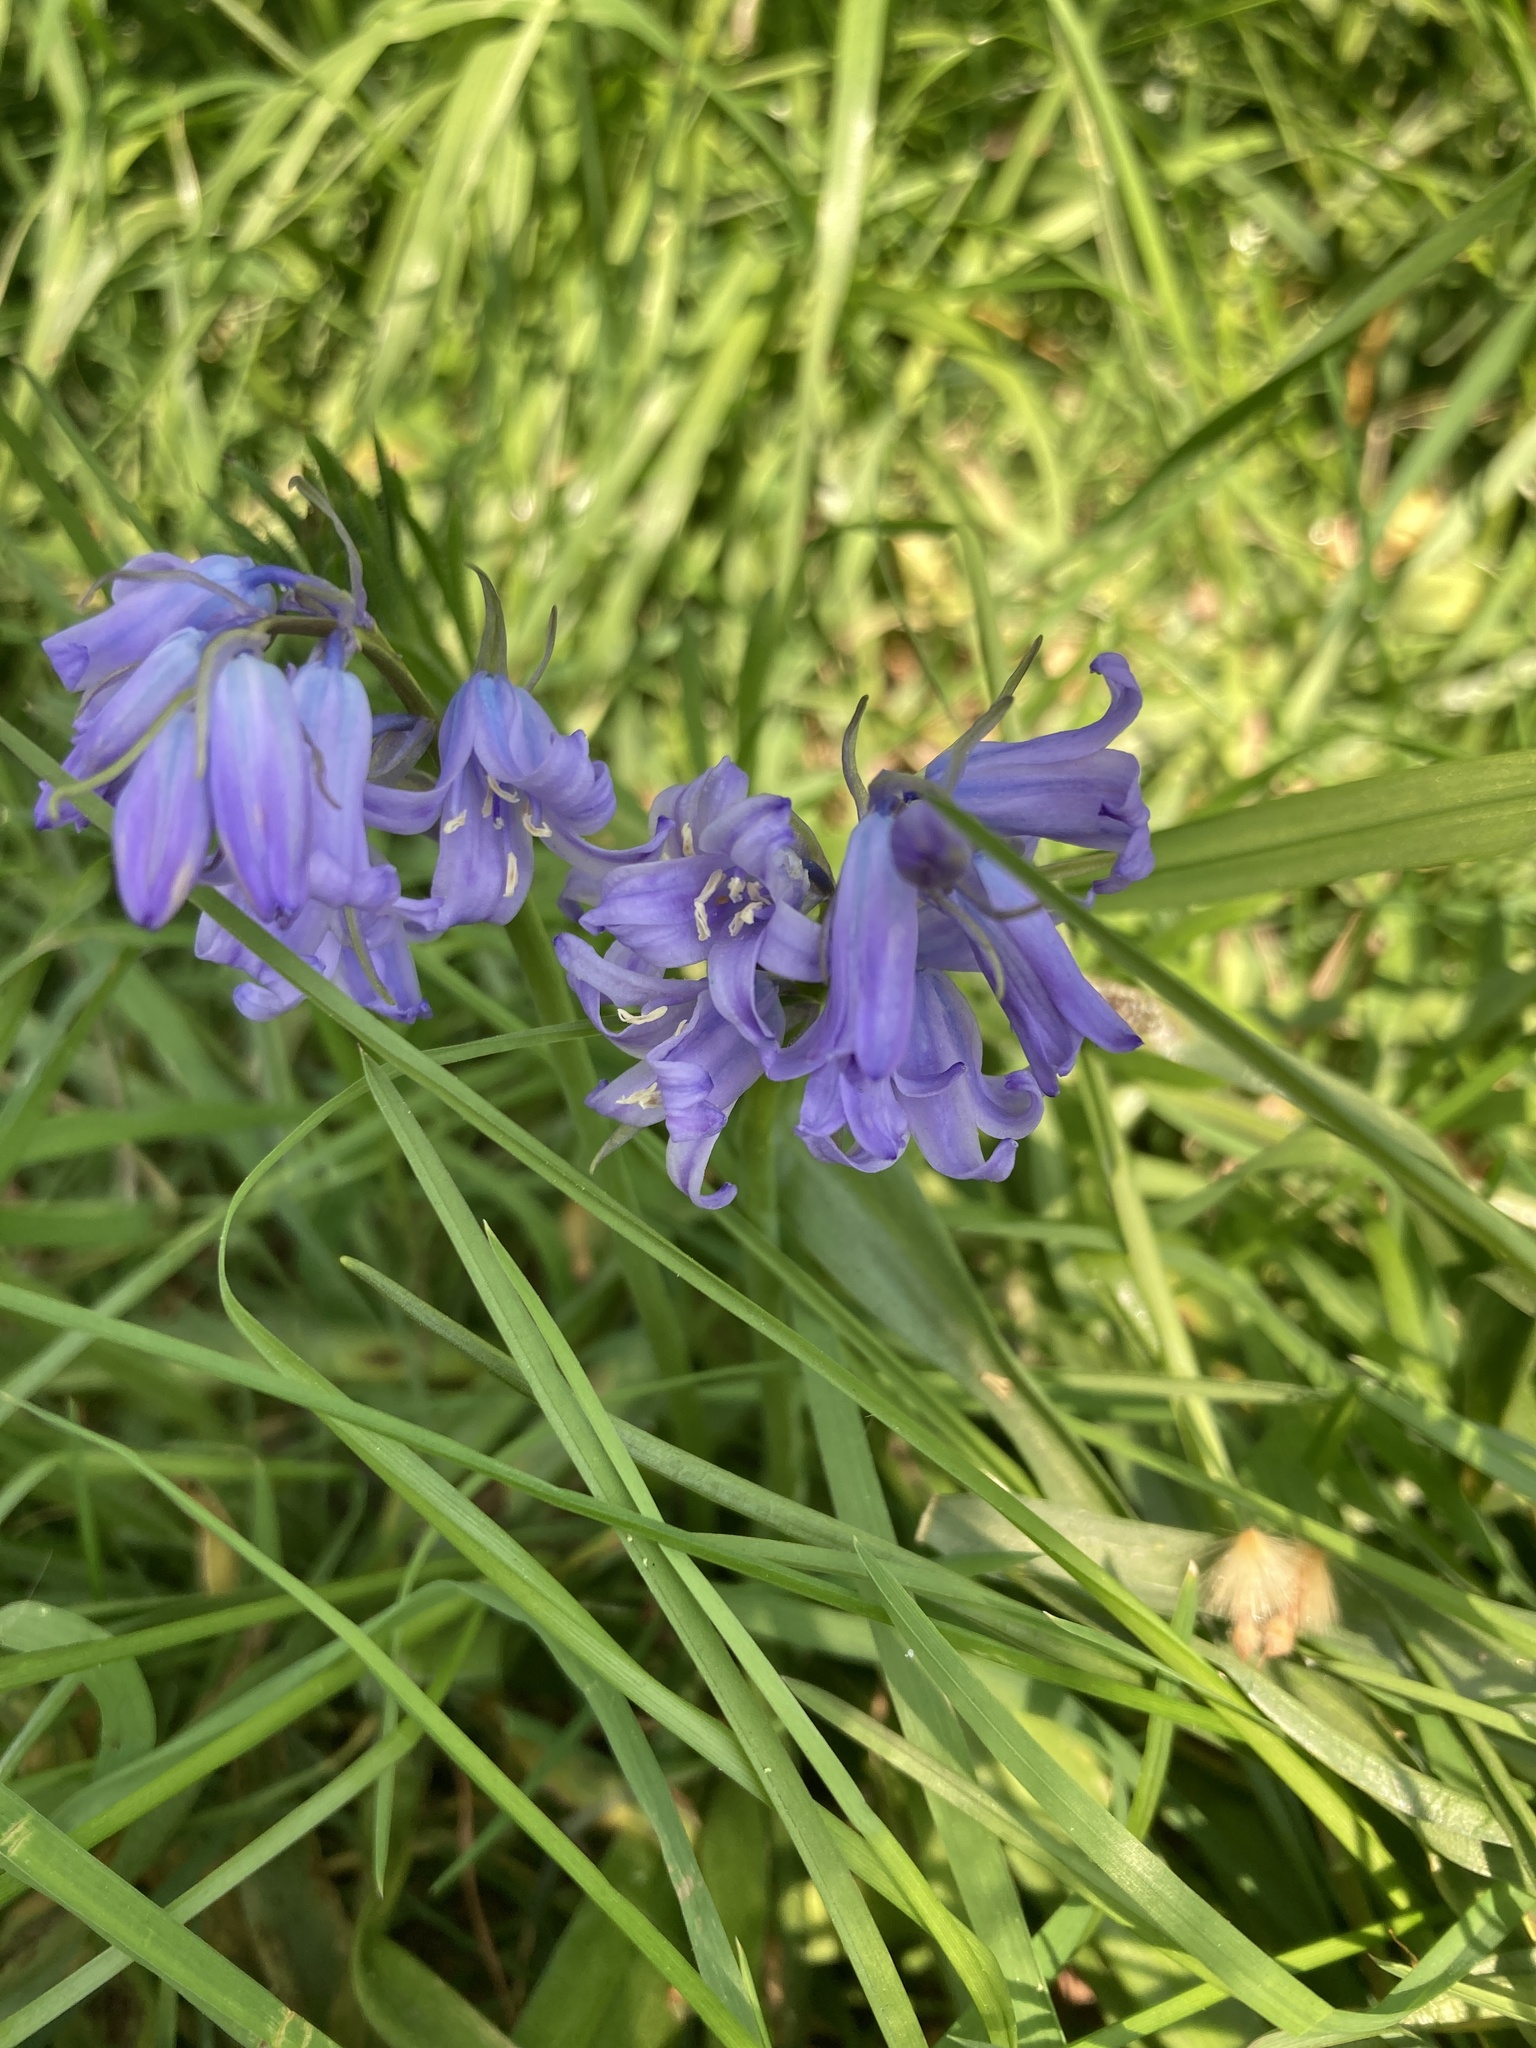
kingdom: Plantae
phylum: Tracheophyta
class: Liliopsida
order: Asparagales
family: Asparagaceae
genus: Hyacinthoides
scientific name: Hyacinthoides massartiana
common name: Hyacinthoides
